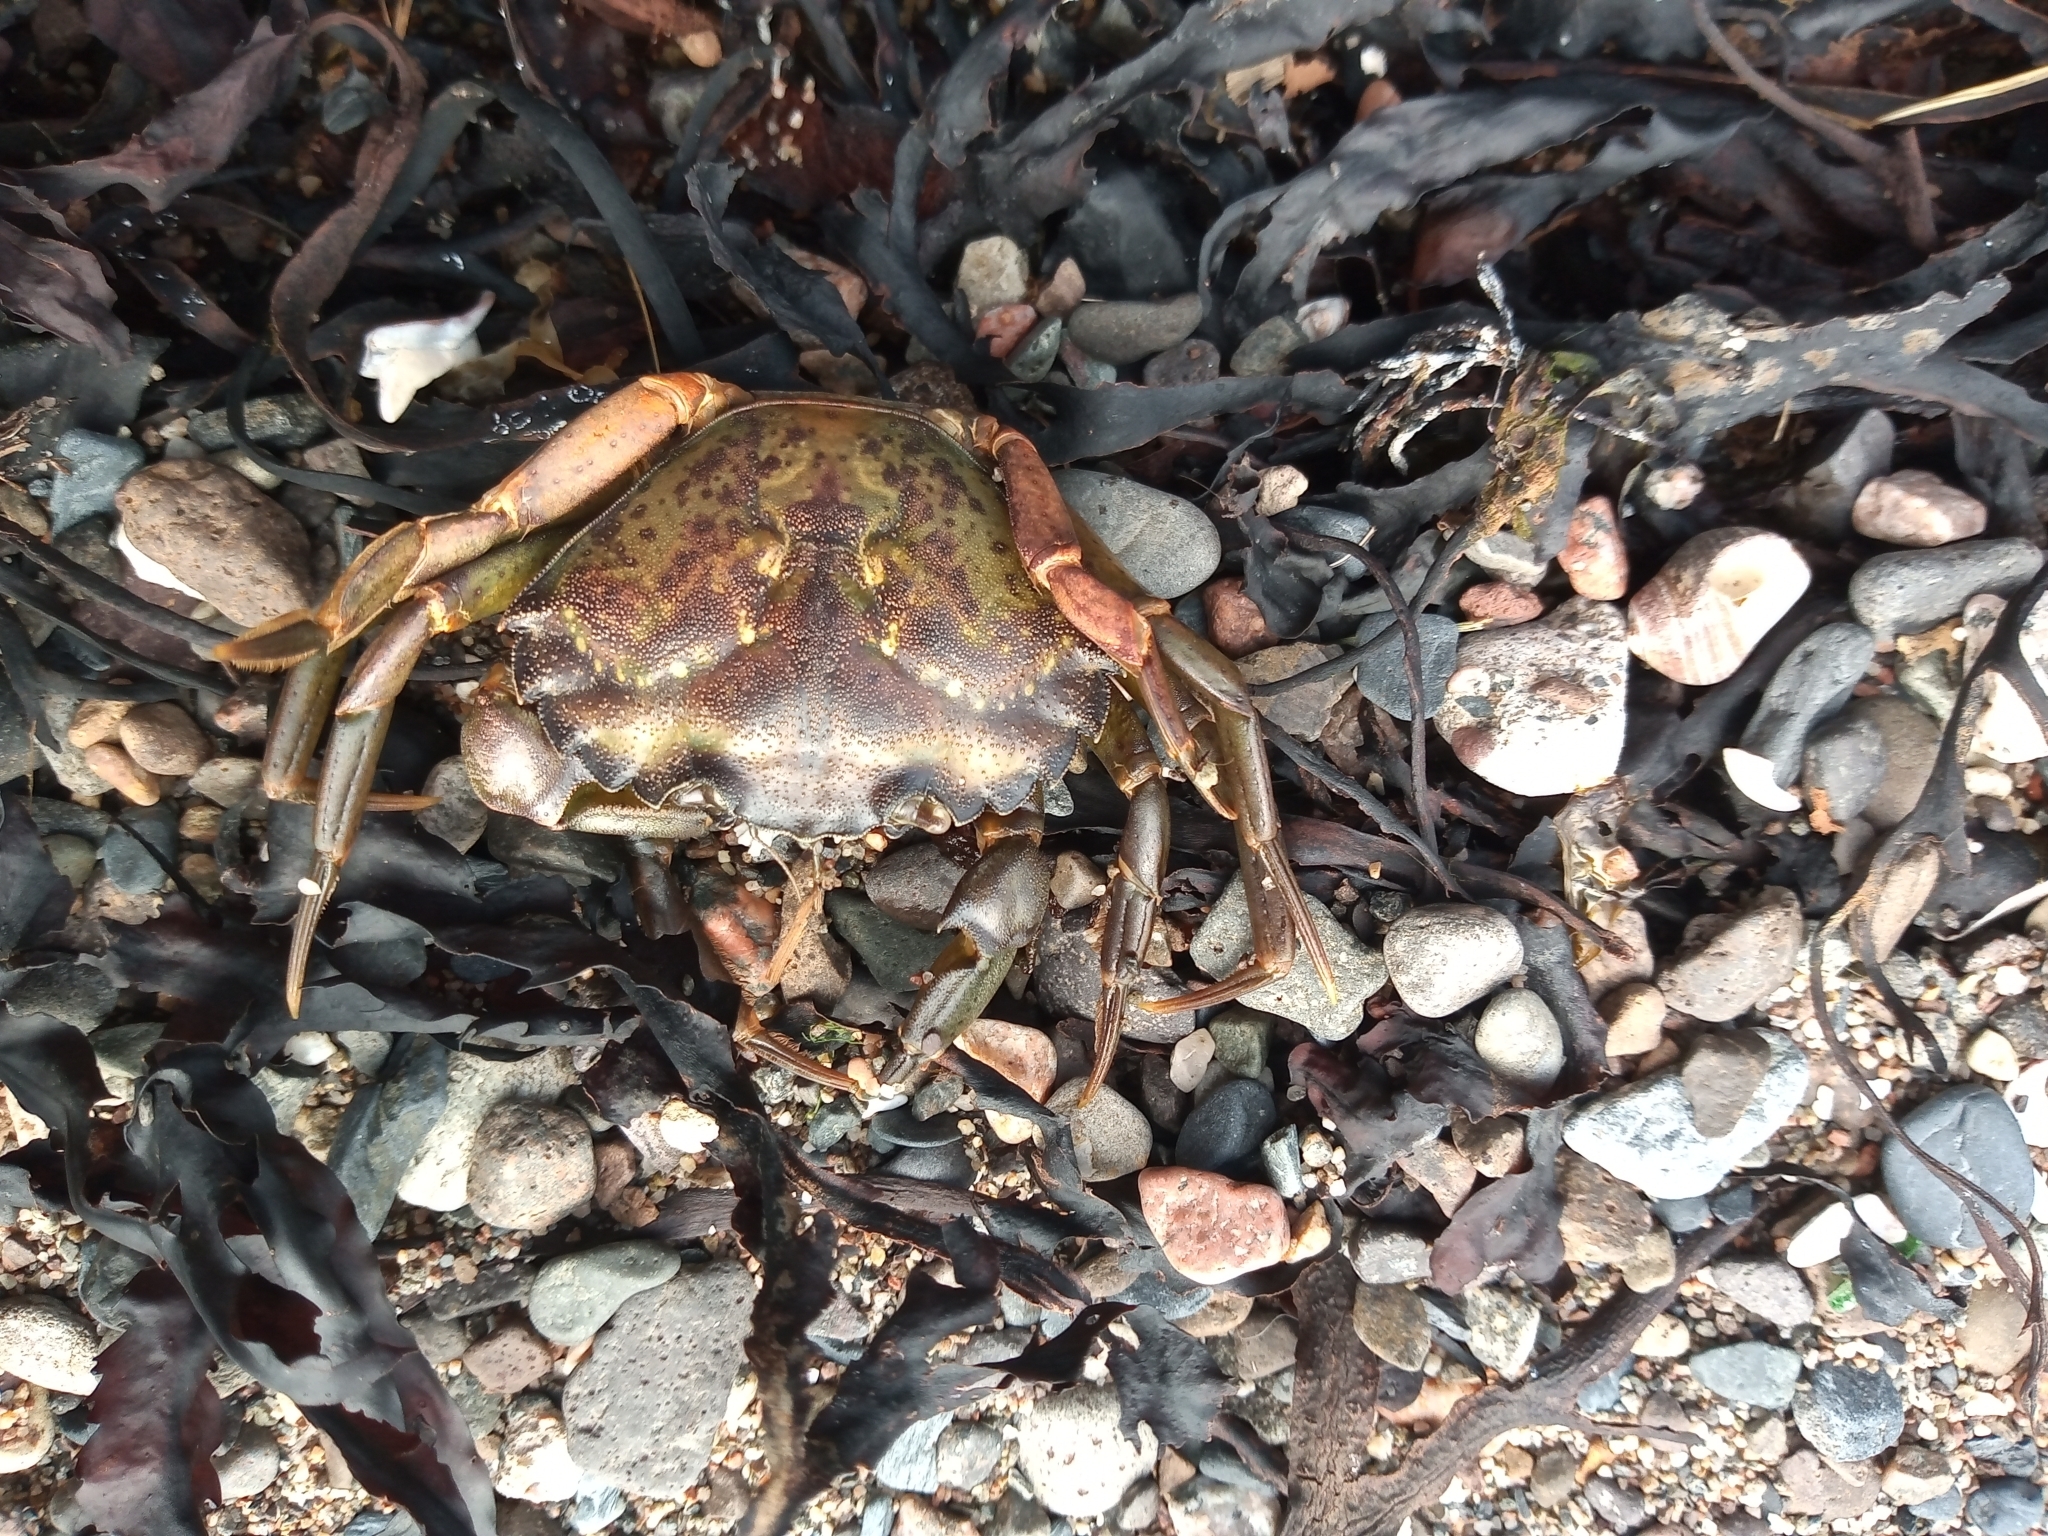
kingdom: Animalia
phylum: Arthropoda
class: Malacostraca
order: Decapoda
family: Carcinidae
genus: Carcinus
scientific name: Carcinus maenas
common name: European green crab
